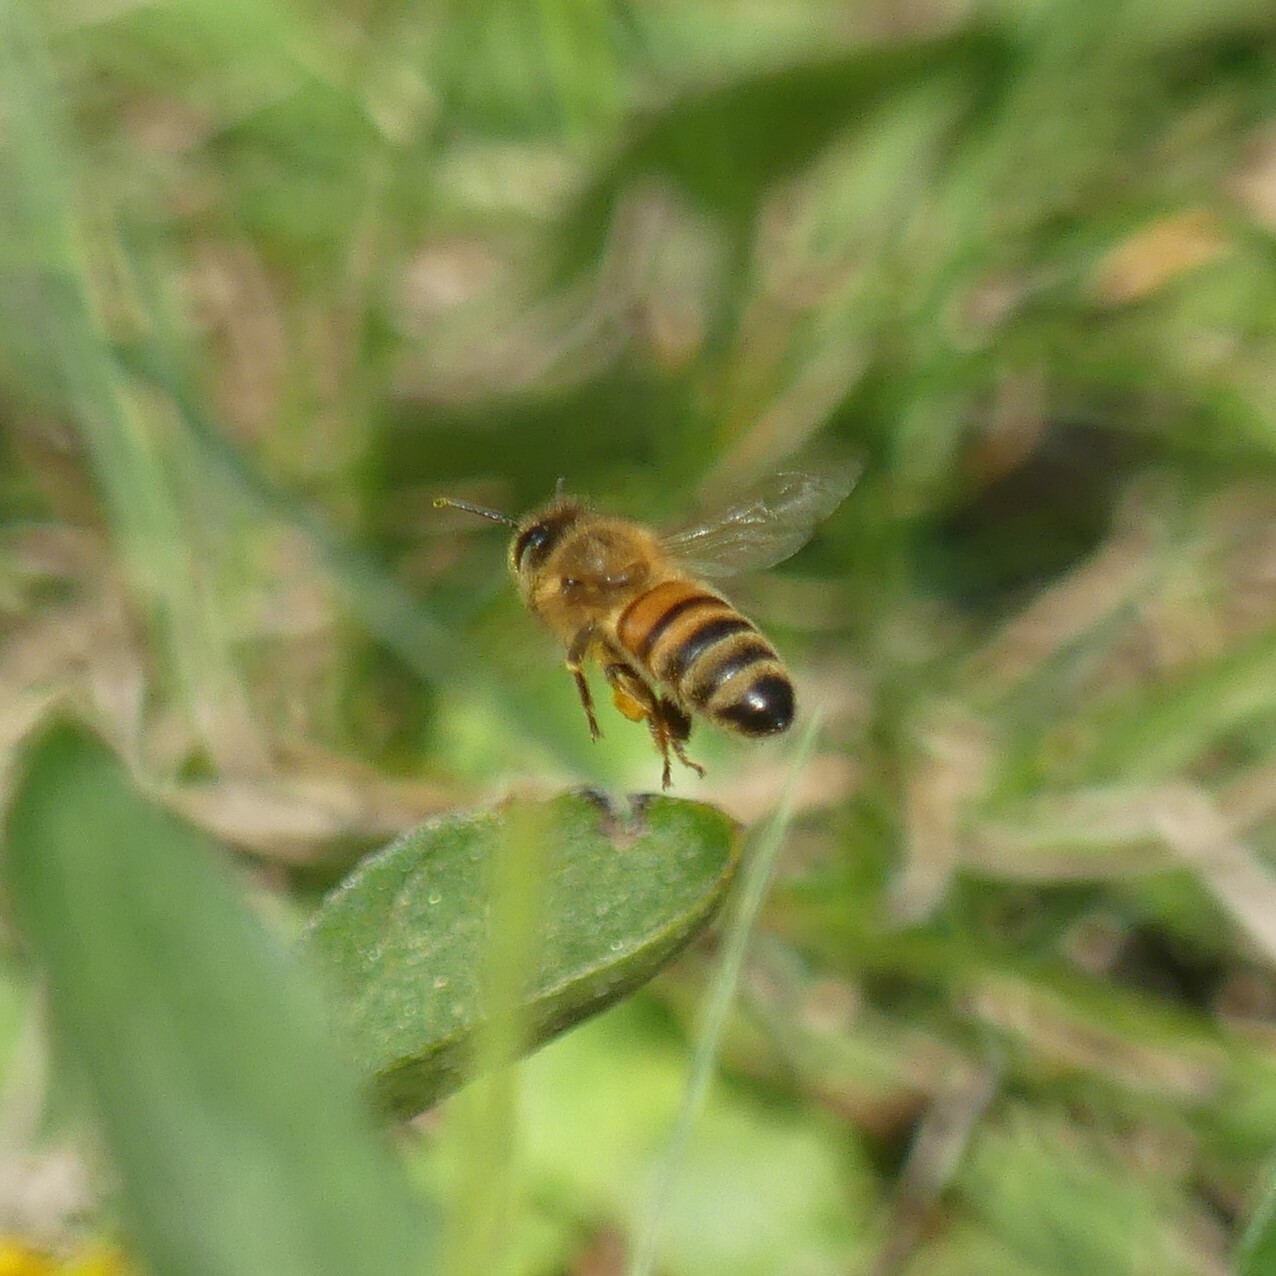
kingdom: Animalia
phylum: Arthropoda
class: Insecta
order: Hymenoptera
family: Apidae
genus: Apis
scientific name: Apis mellifera
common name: Honey bee
